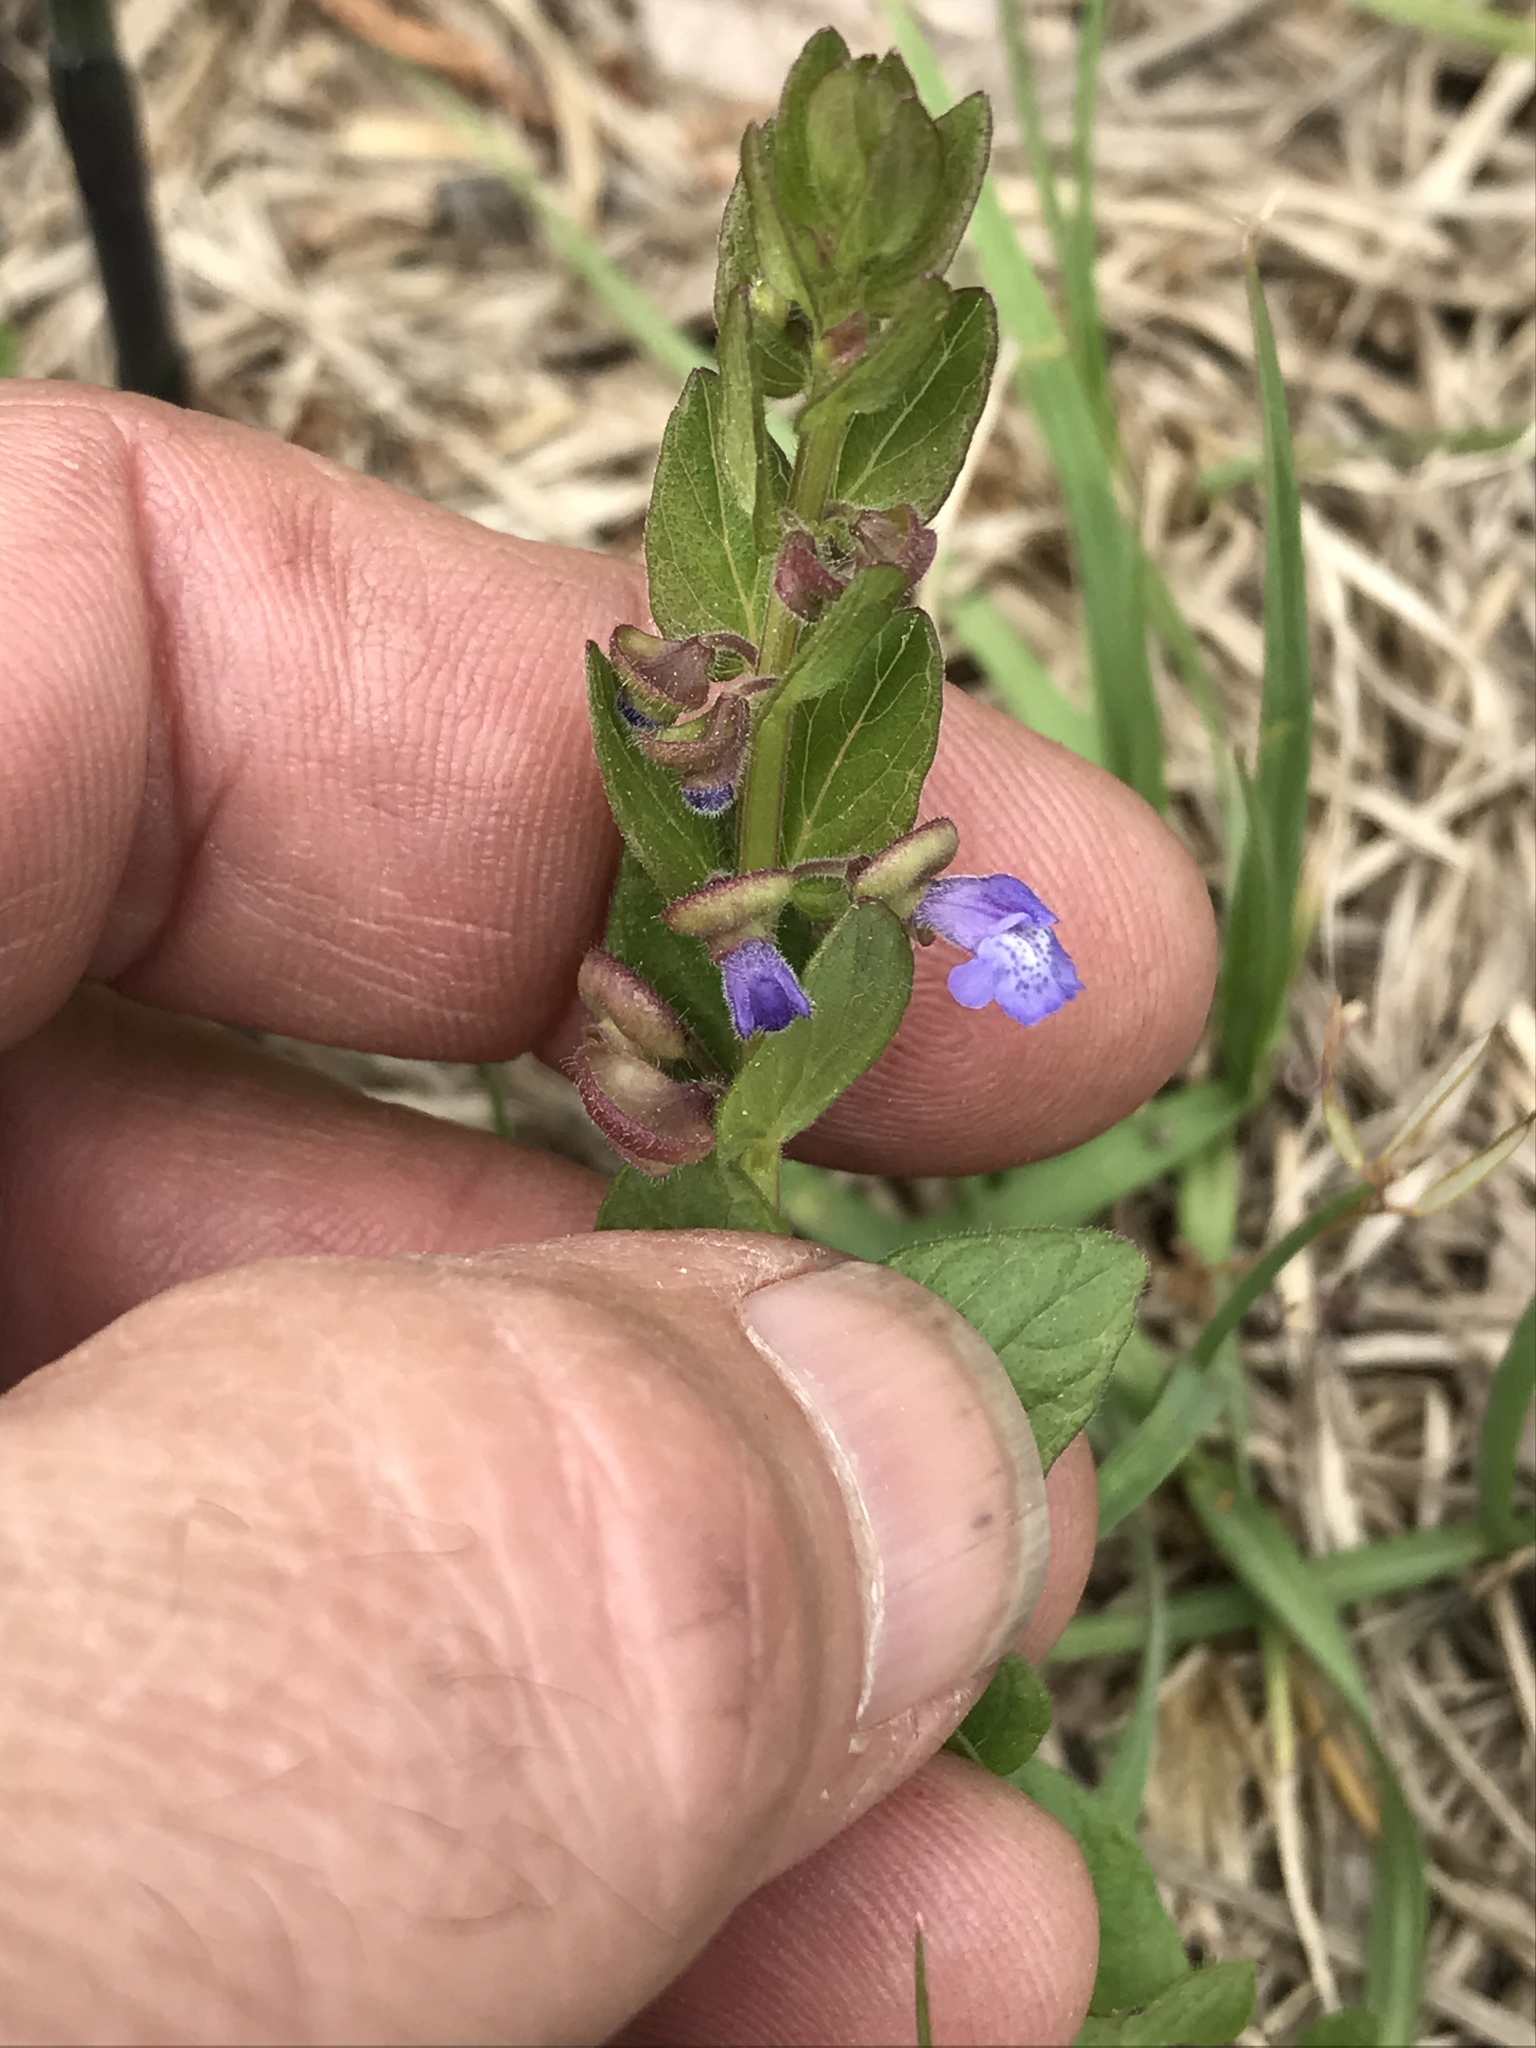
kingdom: Plantae
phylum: Tracheophyta
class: Magnoliopsida
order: Lamiales
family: Lamiaceae
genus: Scutellaria
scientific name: Scutellaria parvula
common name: Little scullcap
